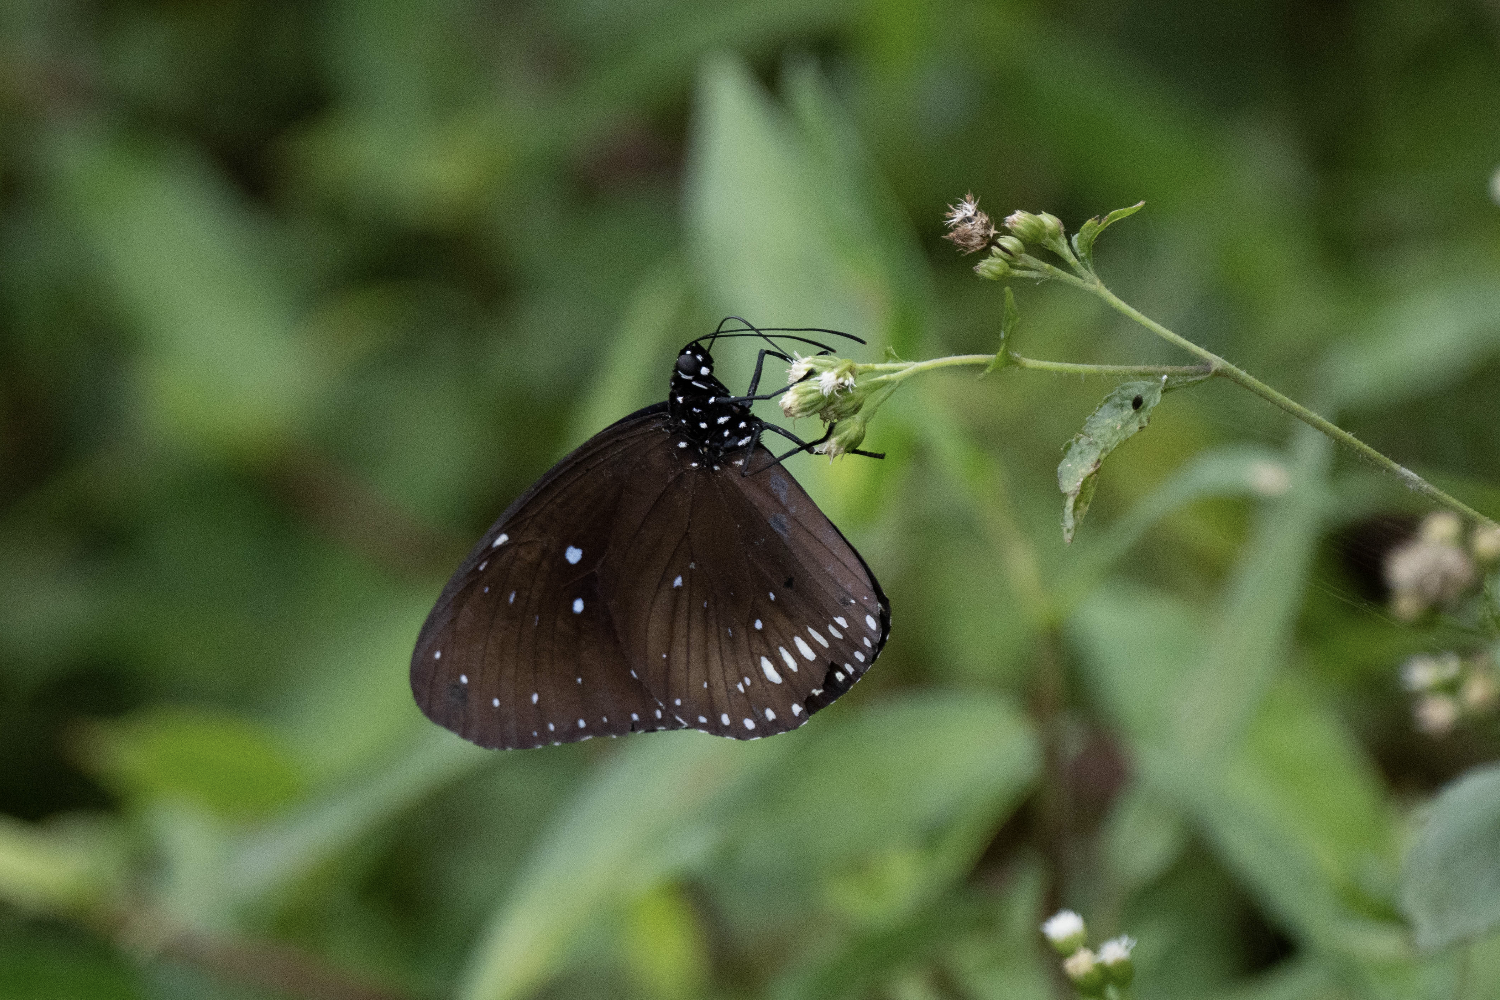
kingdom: Animalia
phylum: Arthropoda
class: Insecta
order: Lepidoptera
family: Nymphalidae
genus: Euploea
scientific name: Euploea midamus
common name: Blue-spotted crow butterfly
